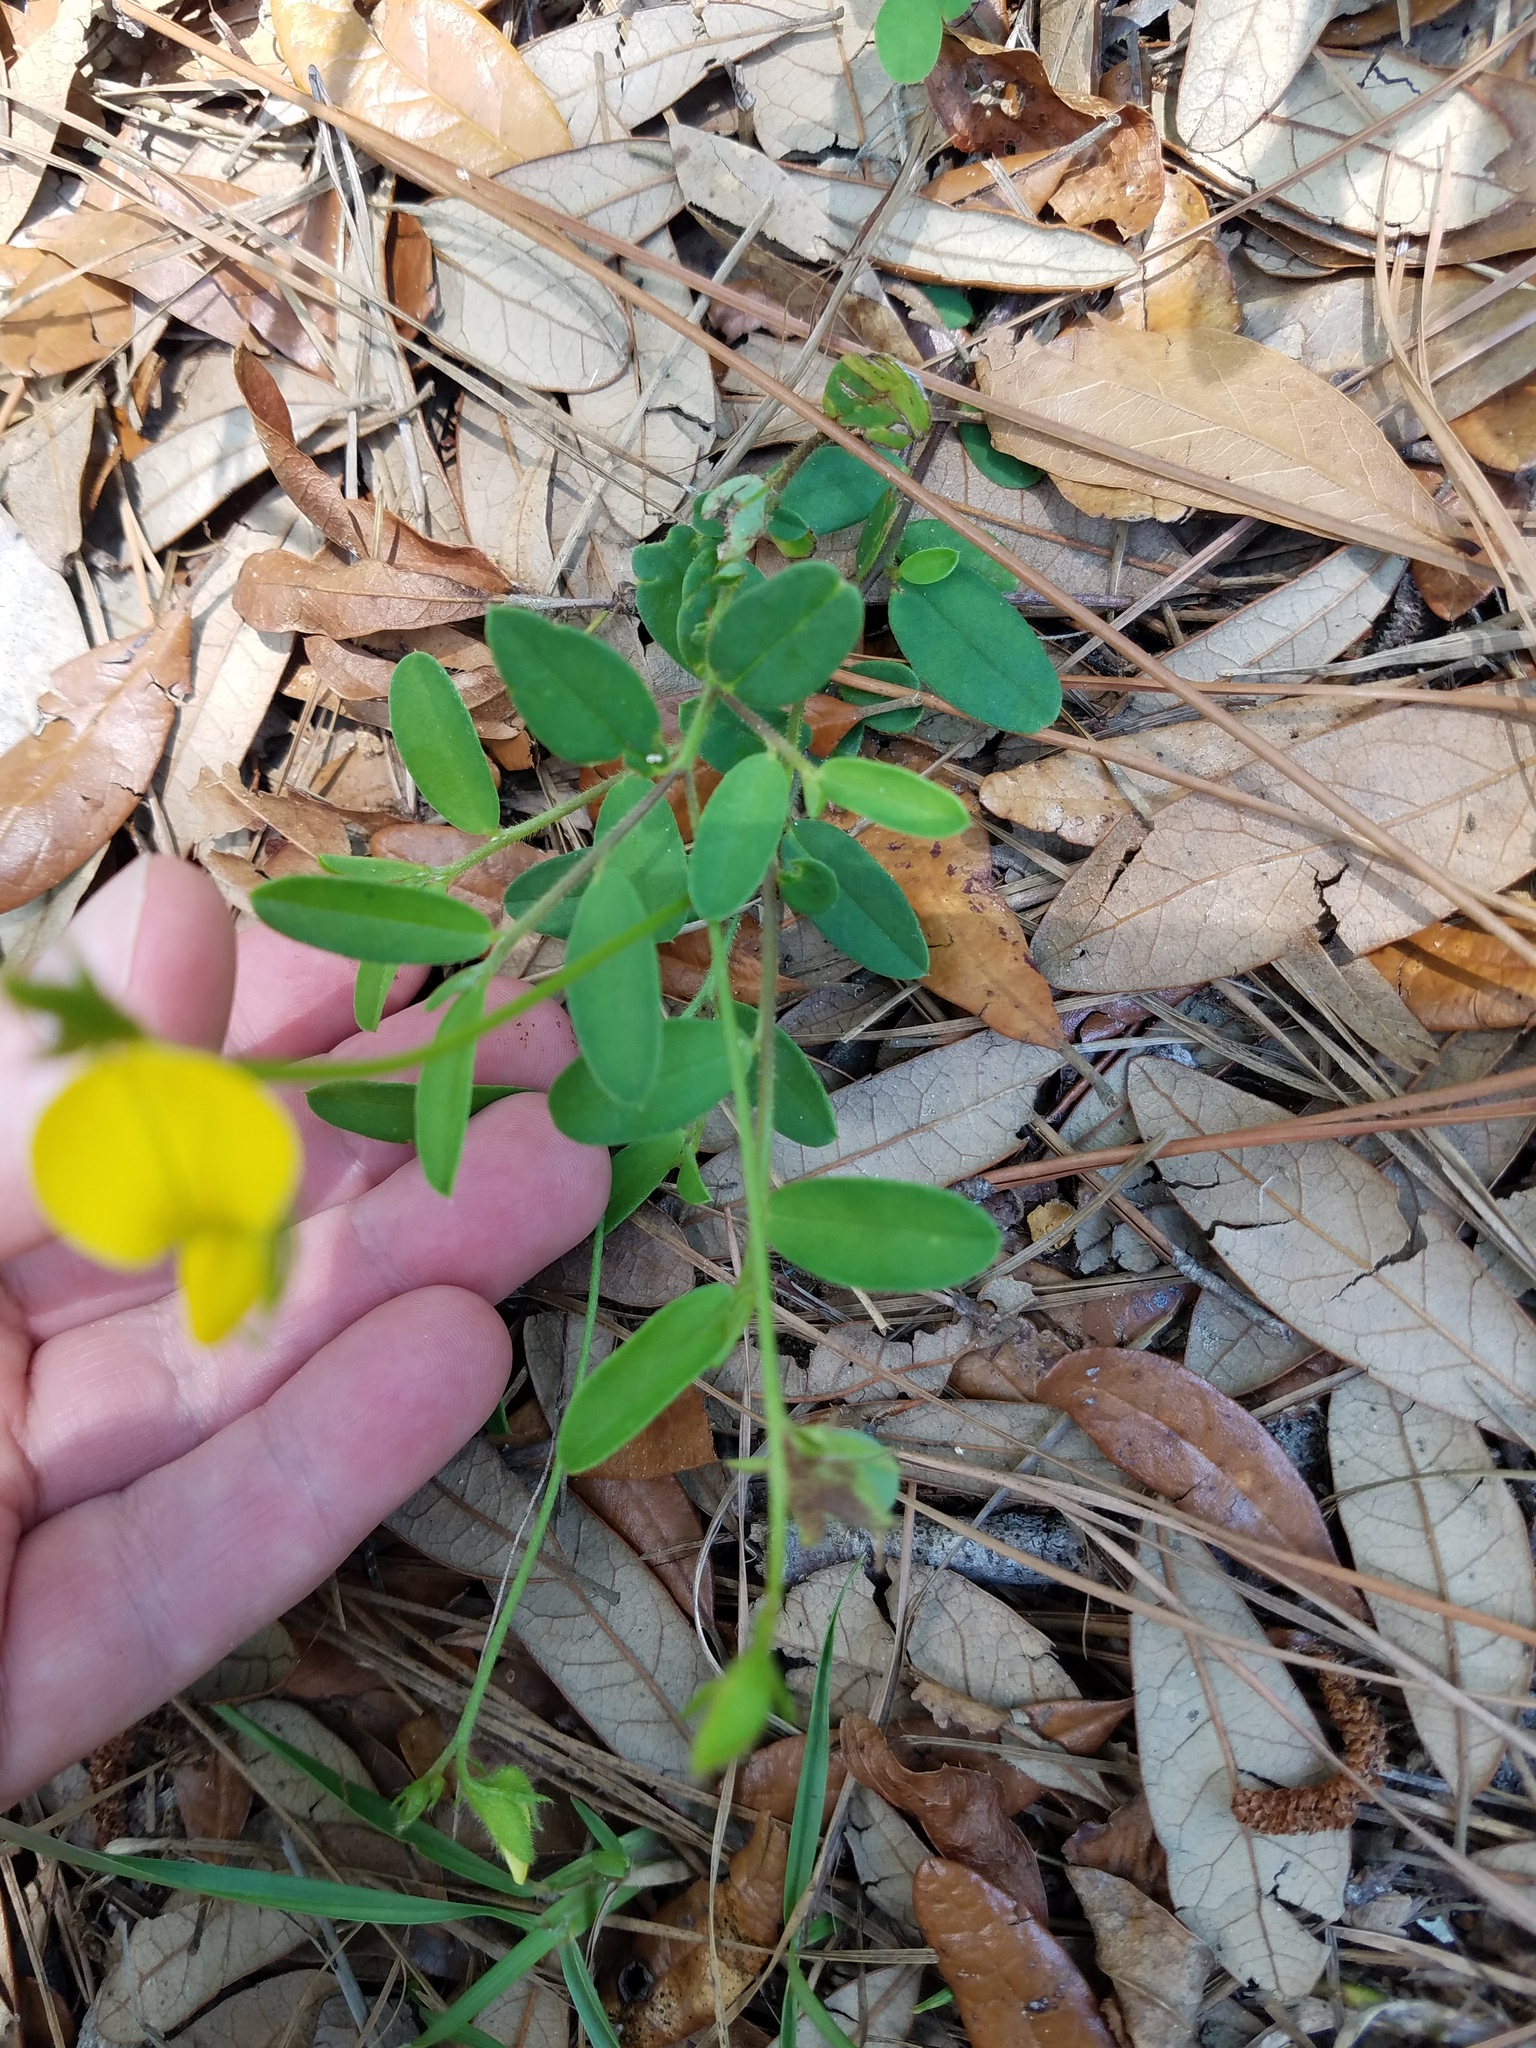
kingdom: Plantae
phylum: Tracheophyta
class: Magnoliopsida
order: Fabales
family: Fabaceae
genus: Crotalaria
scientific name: Crotalaria rotundifolia
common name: Prostrate rattlebox
